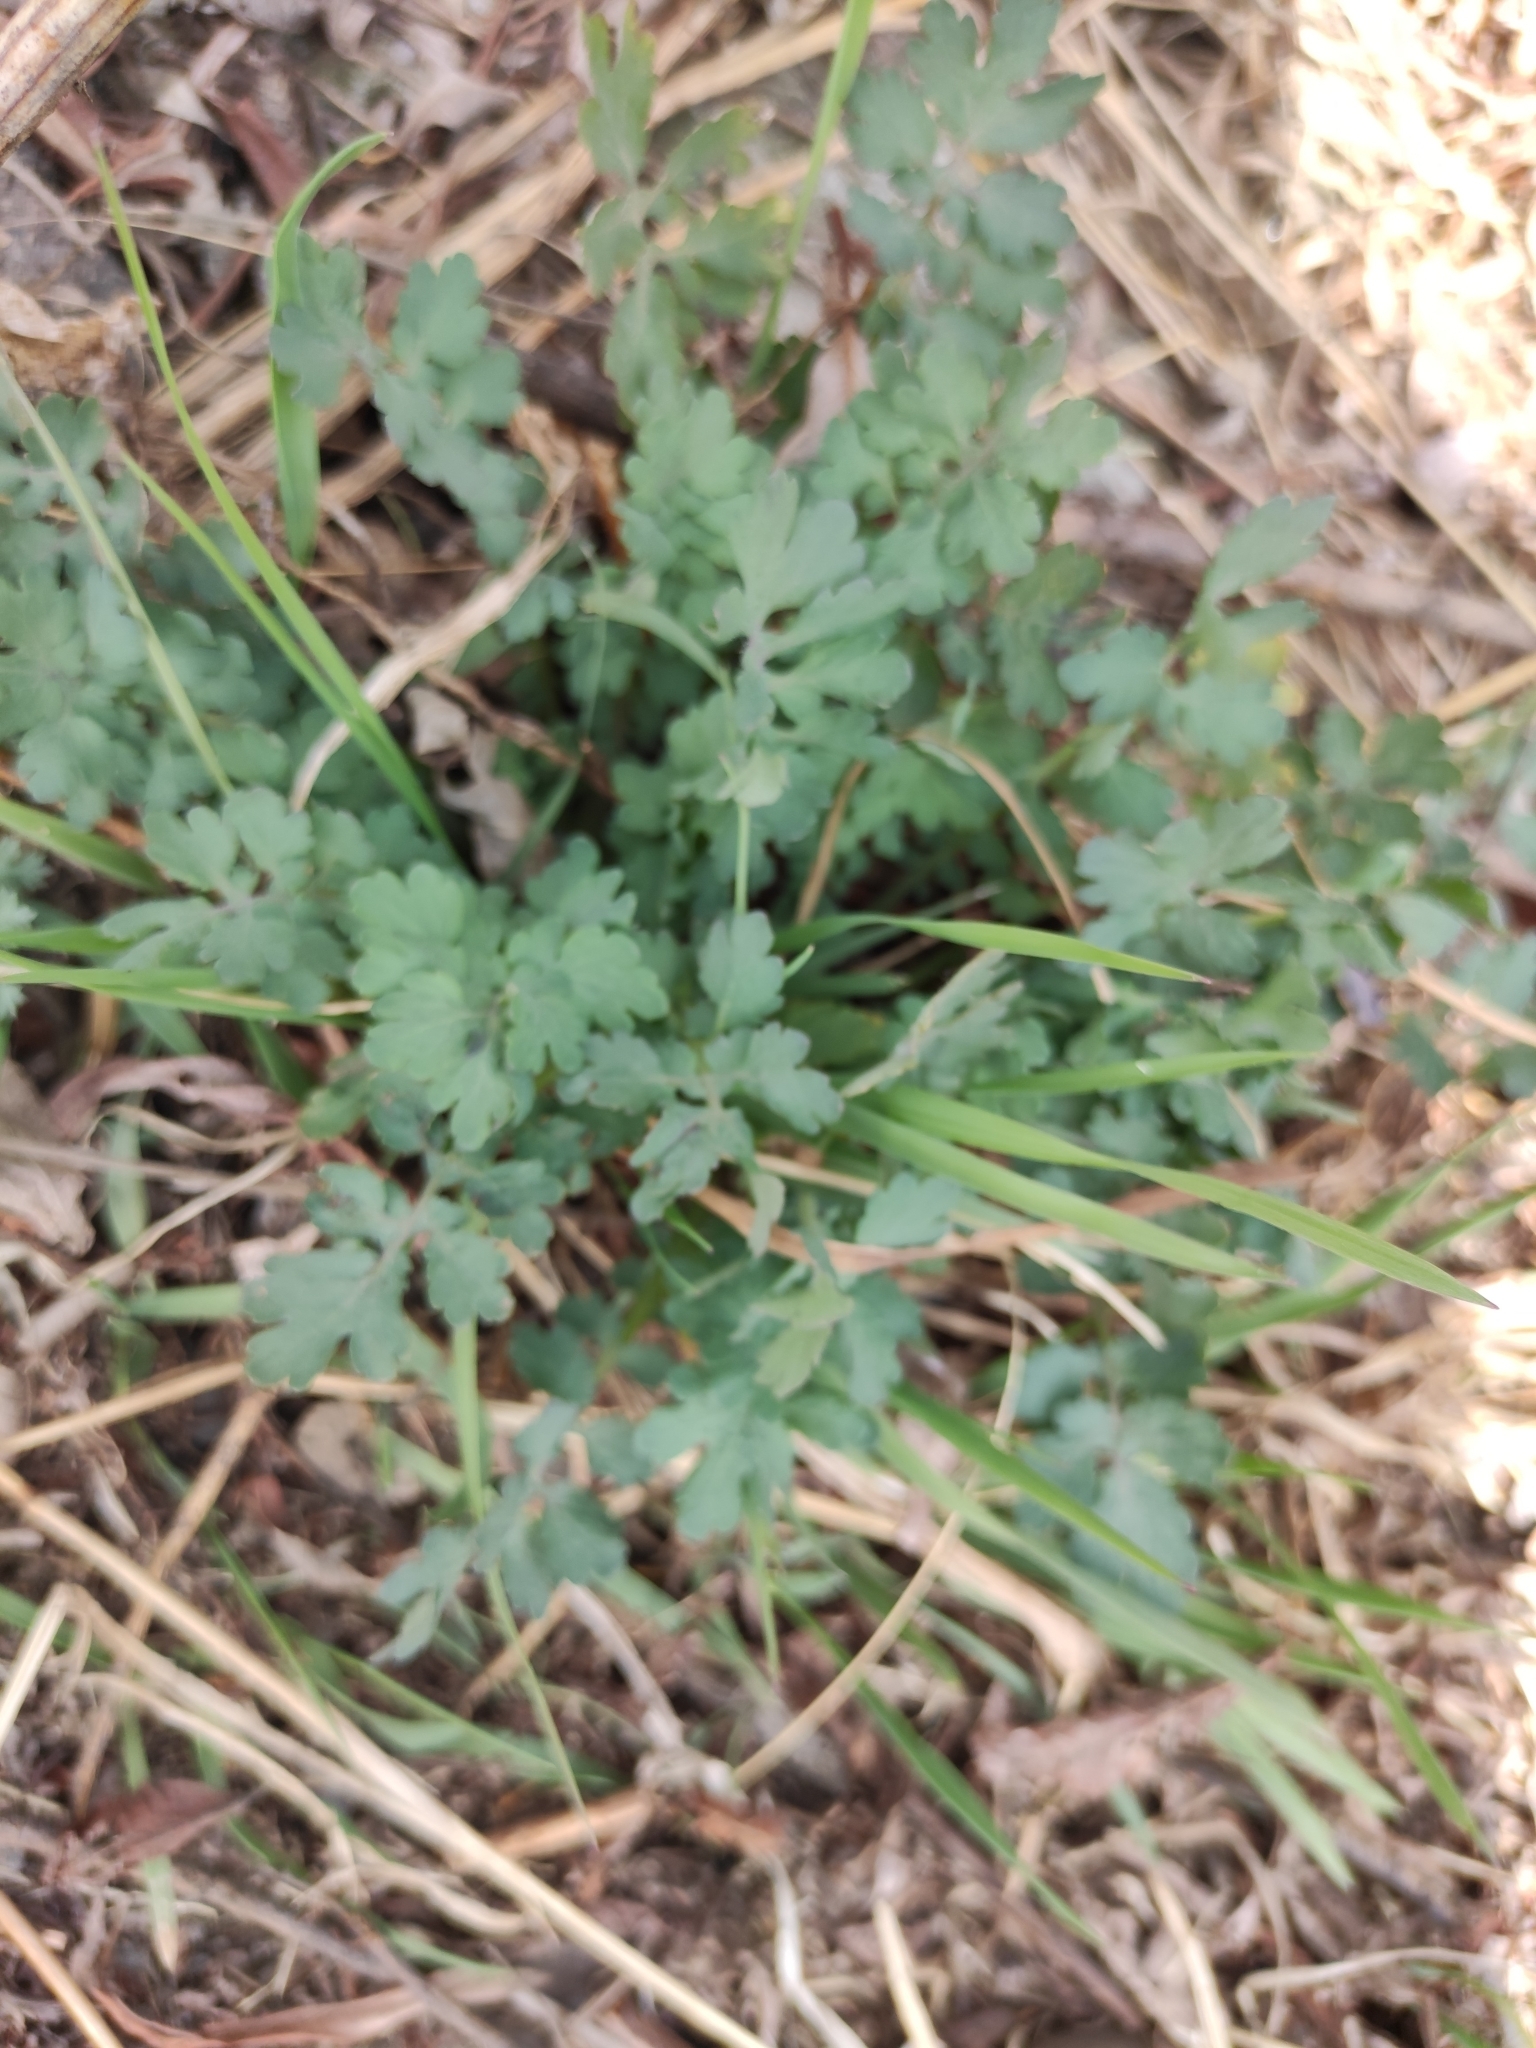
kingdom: Plantae
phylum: Tracheophyta
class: Magnoliopsida
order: Ranunculales
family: Papaveraceae
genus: Chelidonium
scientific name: Chelidonium majus
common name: Greater celandine
